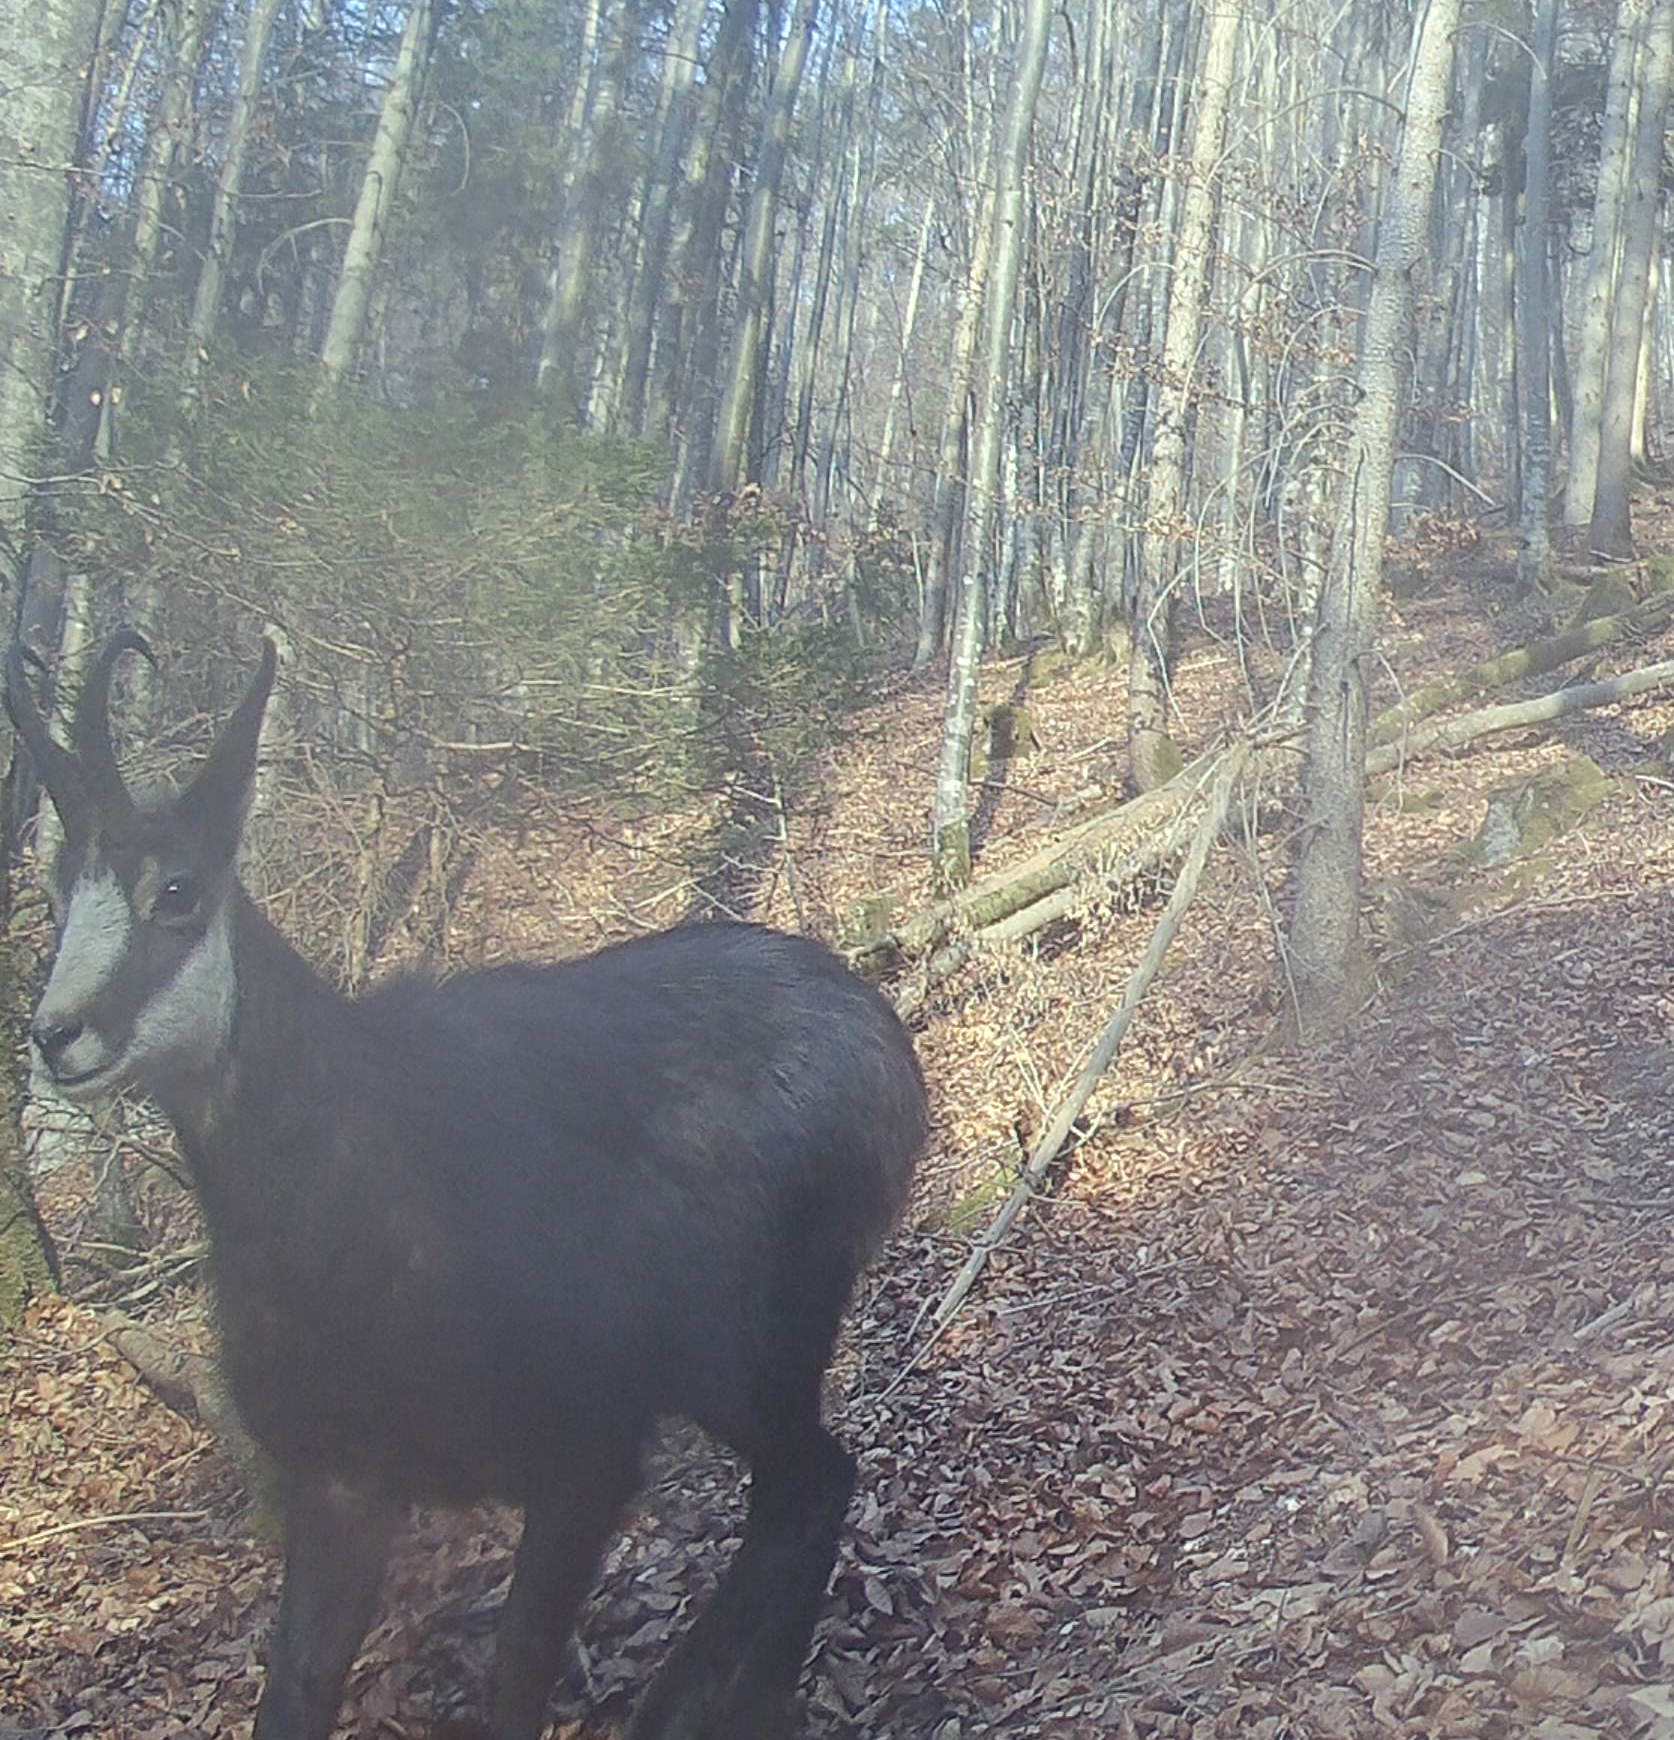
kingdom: Animalia
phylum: Chordata
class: Mammalia
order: Artiodactyla
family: Bovidae
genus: Rupicapra
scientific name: Rupicapra rupicapra
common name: Chamois
